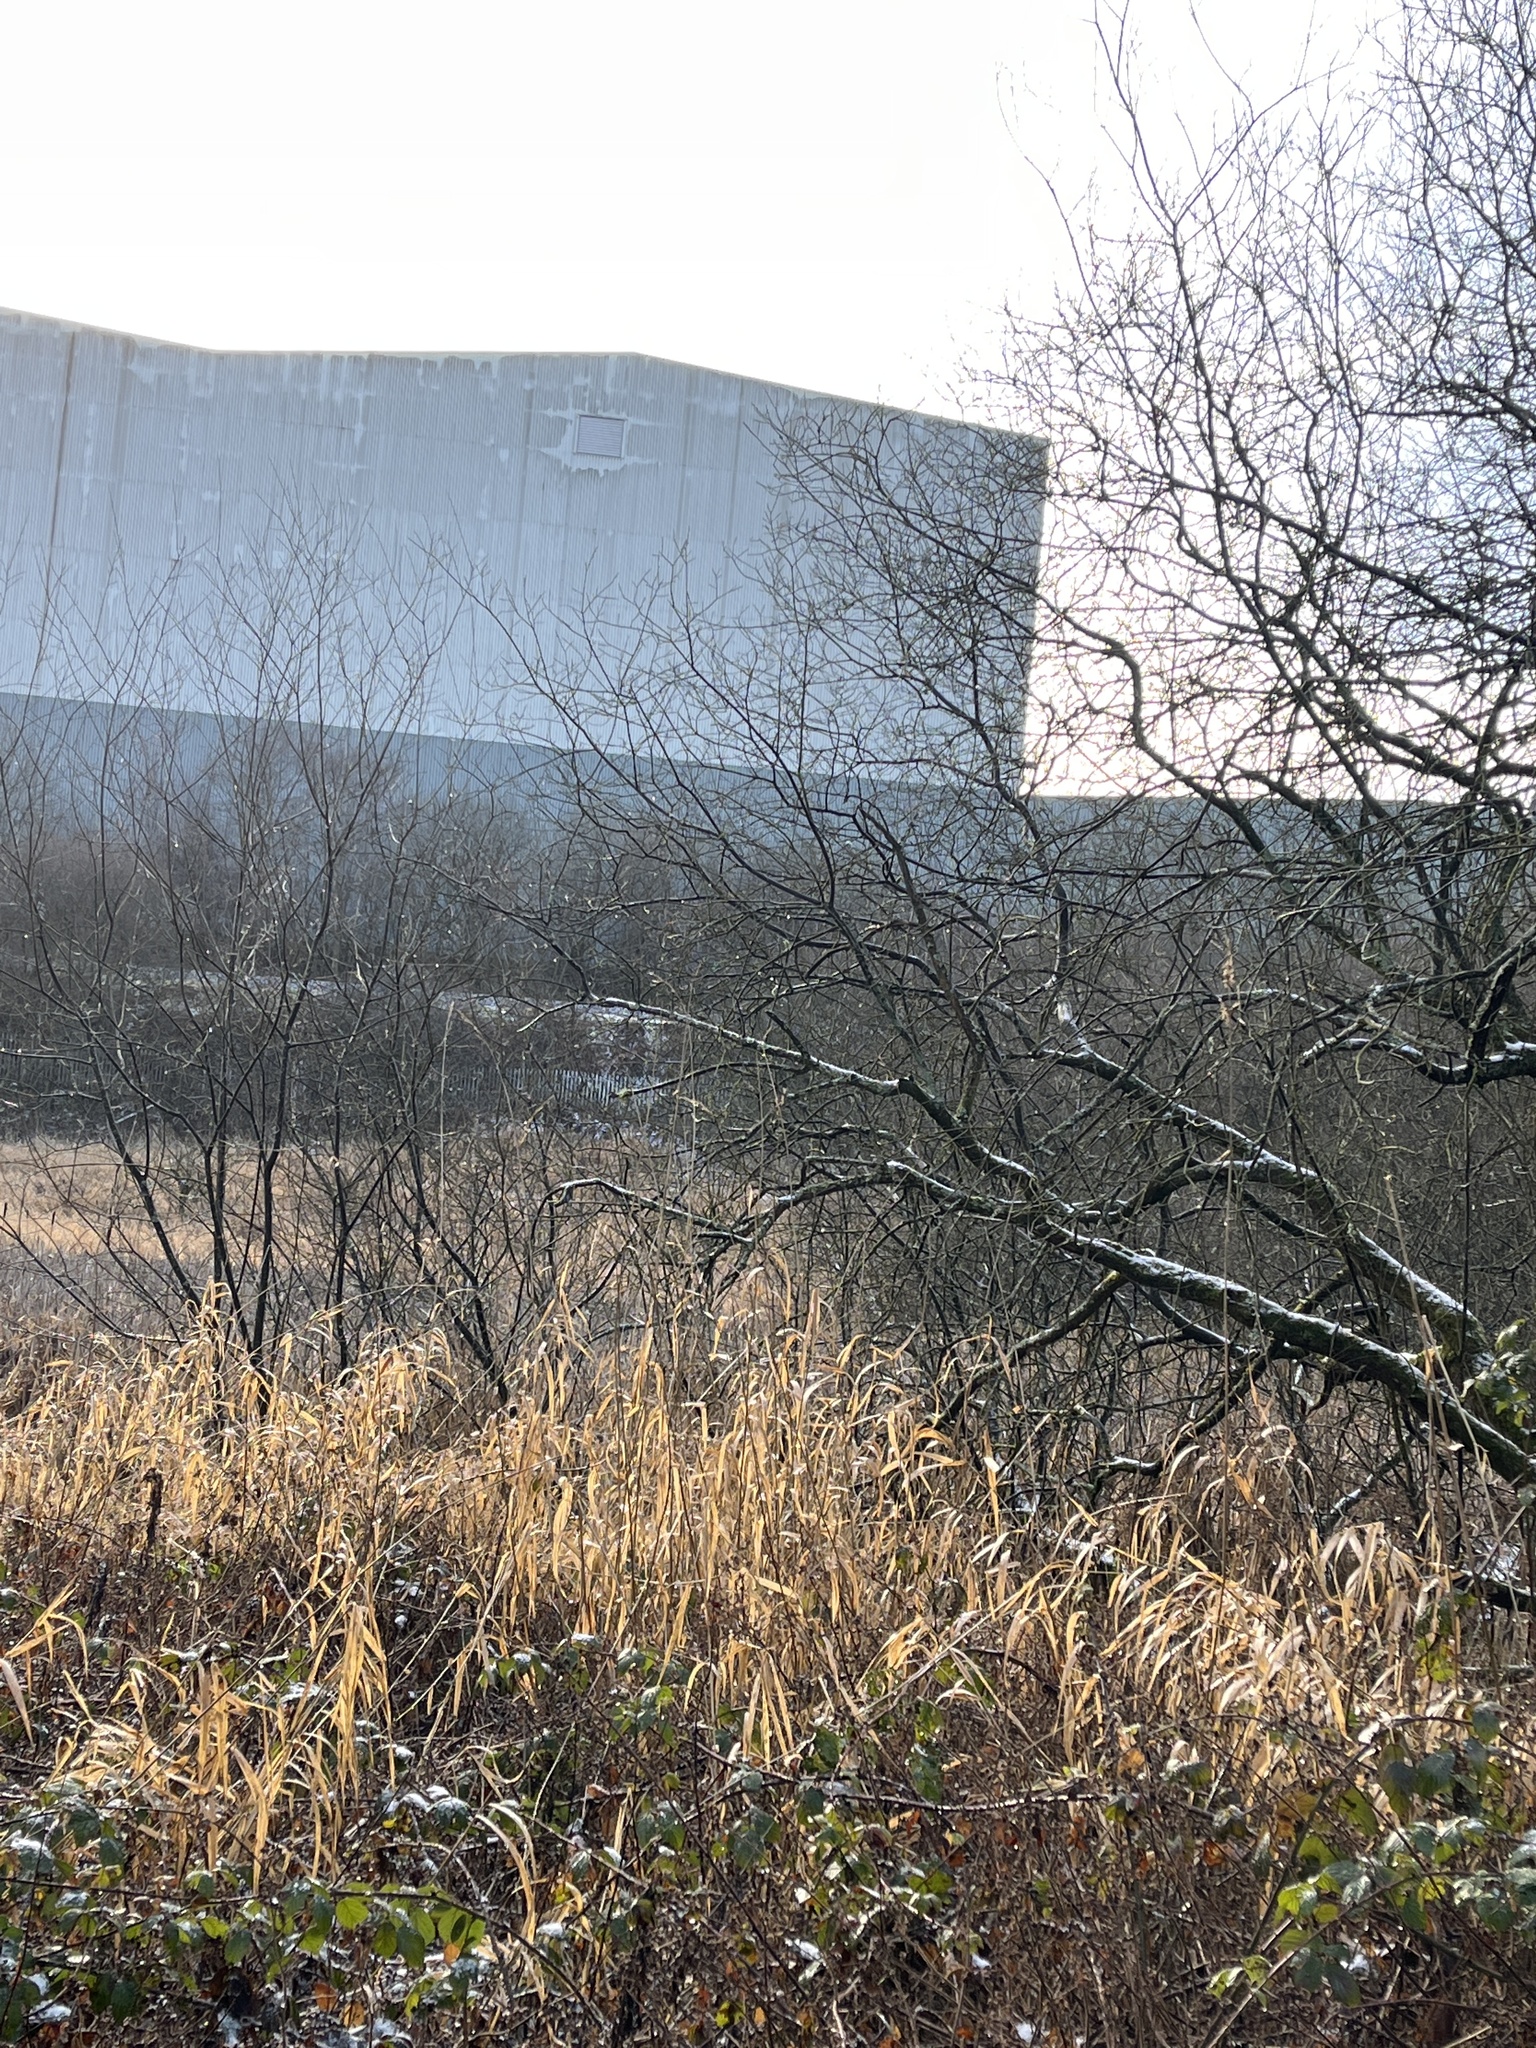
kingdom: Plantae
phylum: Tracheophyta
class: Liliopsida
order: Poales
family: Poaceae
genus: Phalaris
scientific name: Phalaris arundinacea
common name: Reed canary-grass
